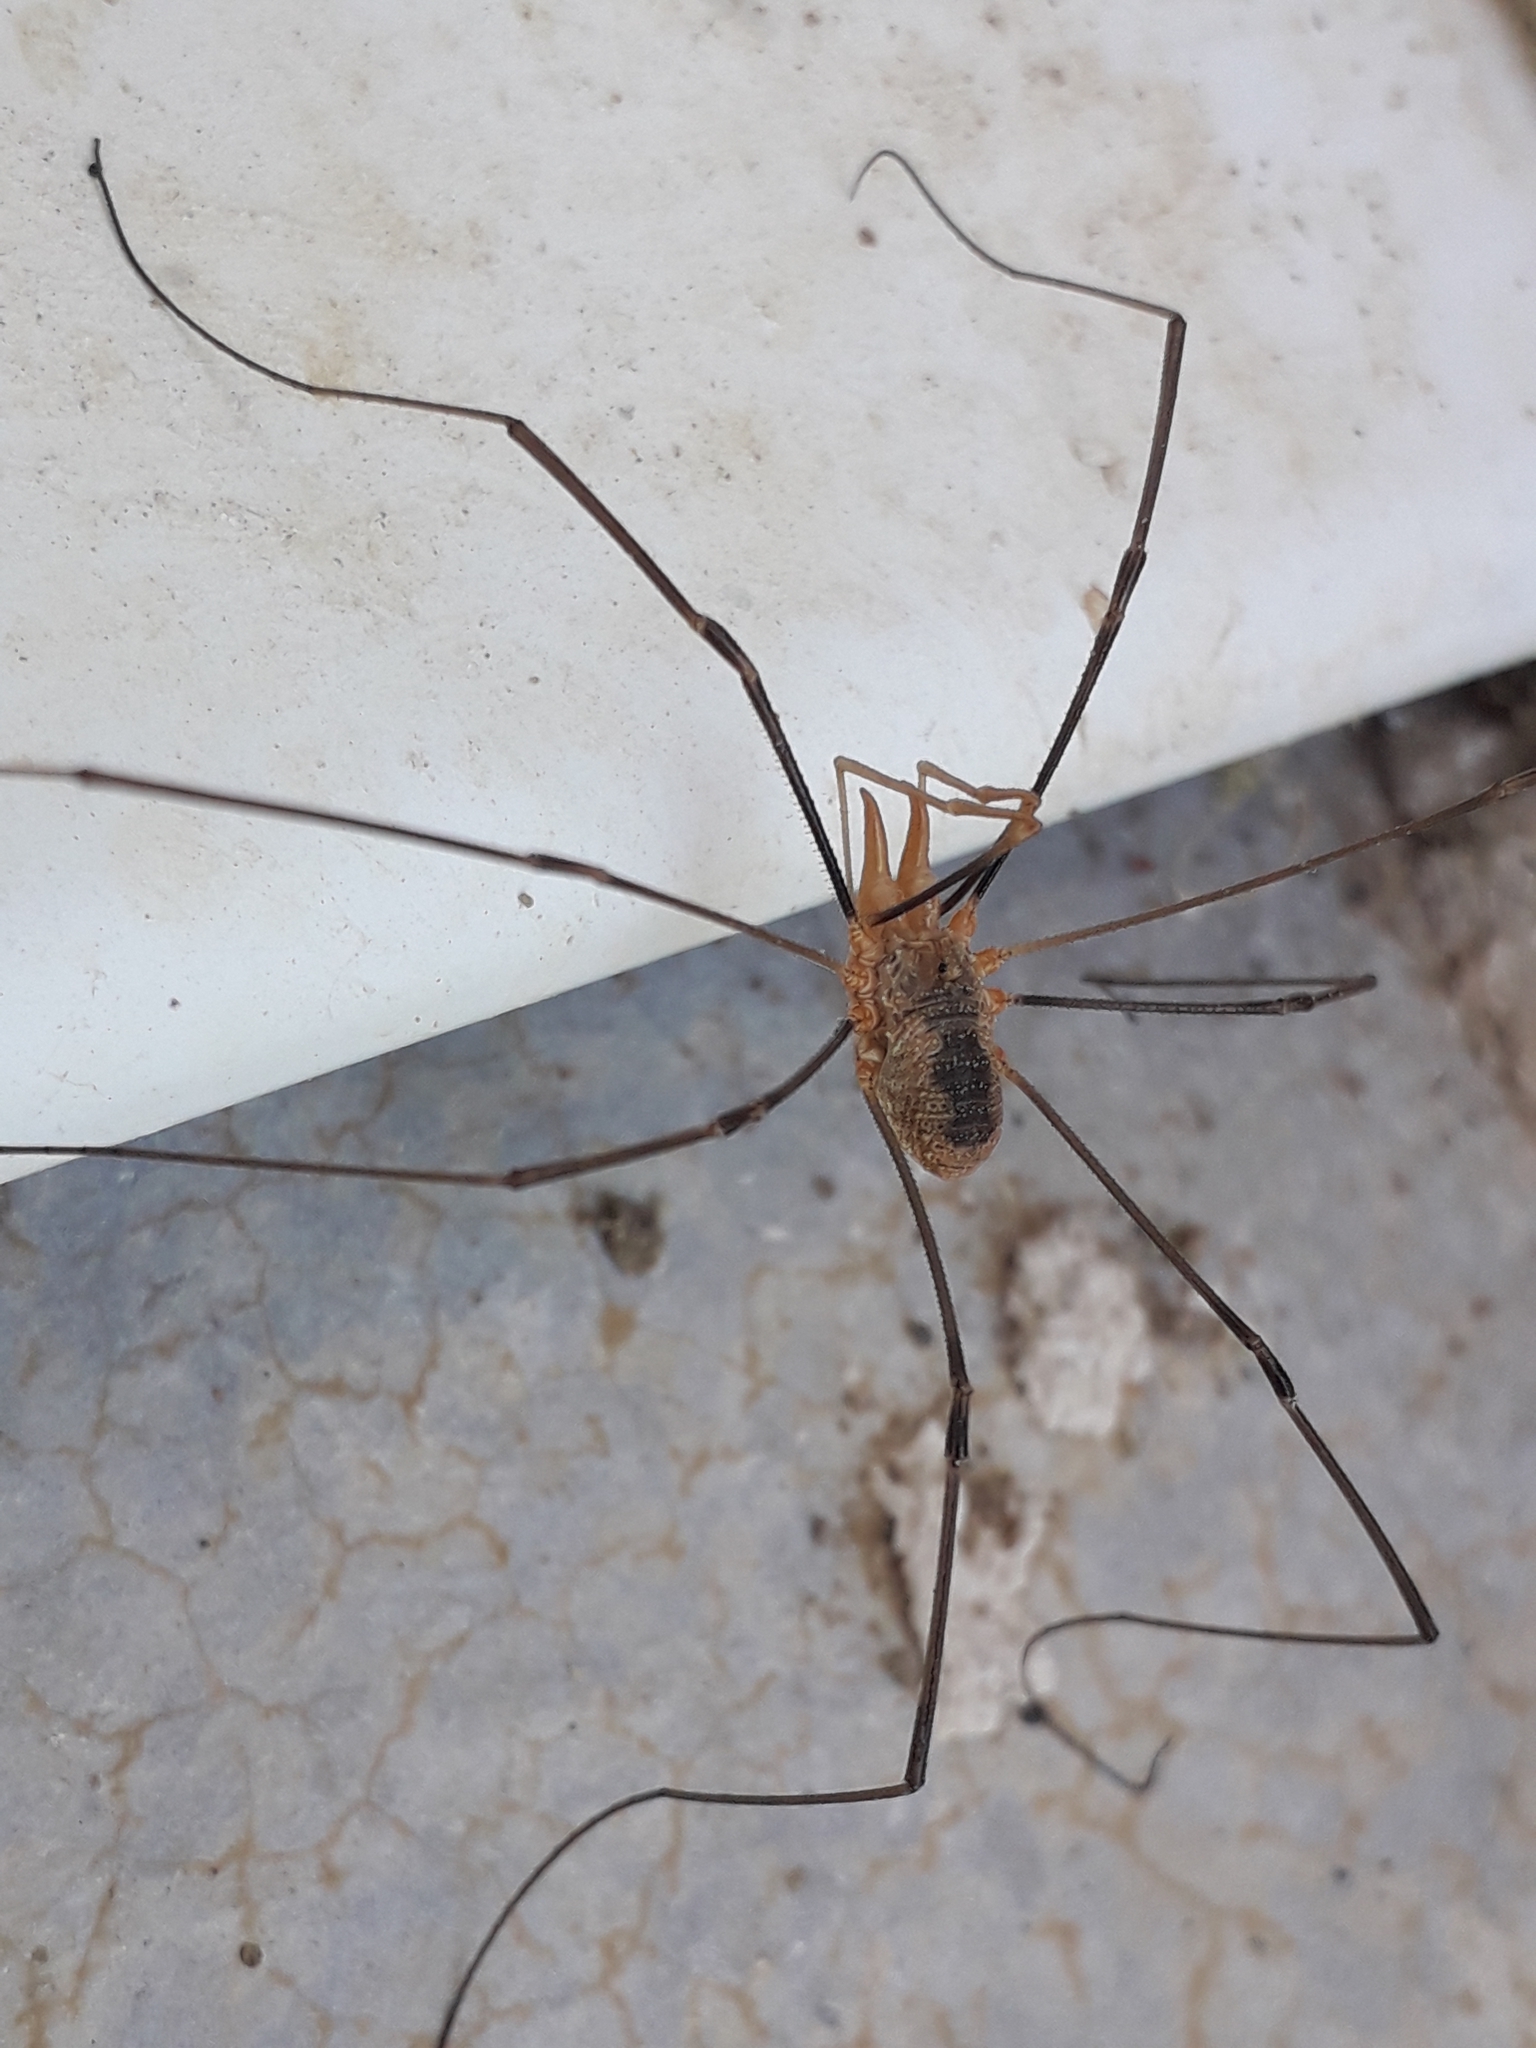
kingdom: Animalia
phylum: Arthropoda
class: Arachnida
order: Opiliones
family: Phalangiidae
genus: Phalangium
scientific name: Phalangium opilio
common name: Daddy longleg
